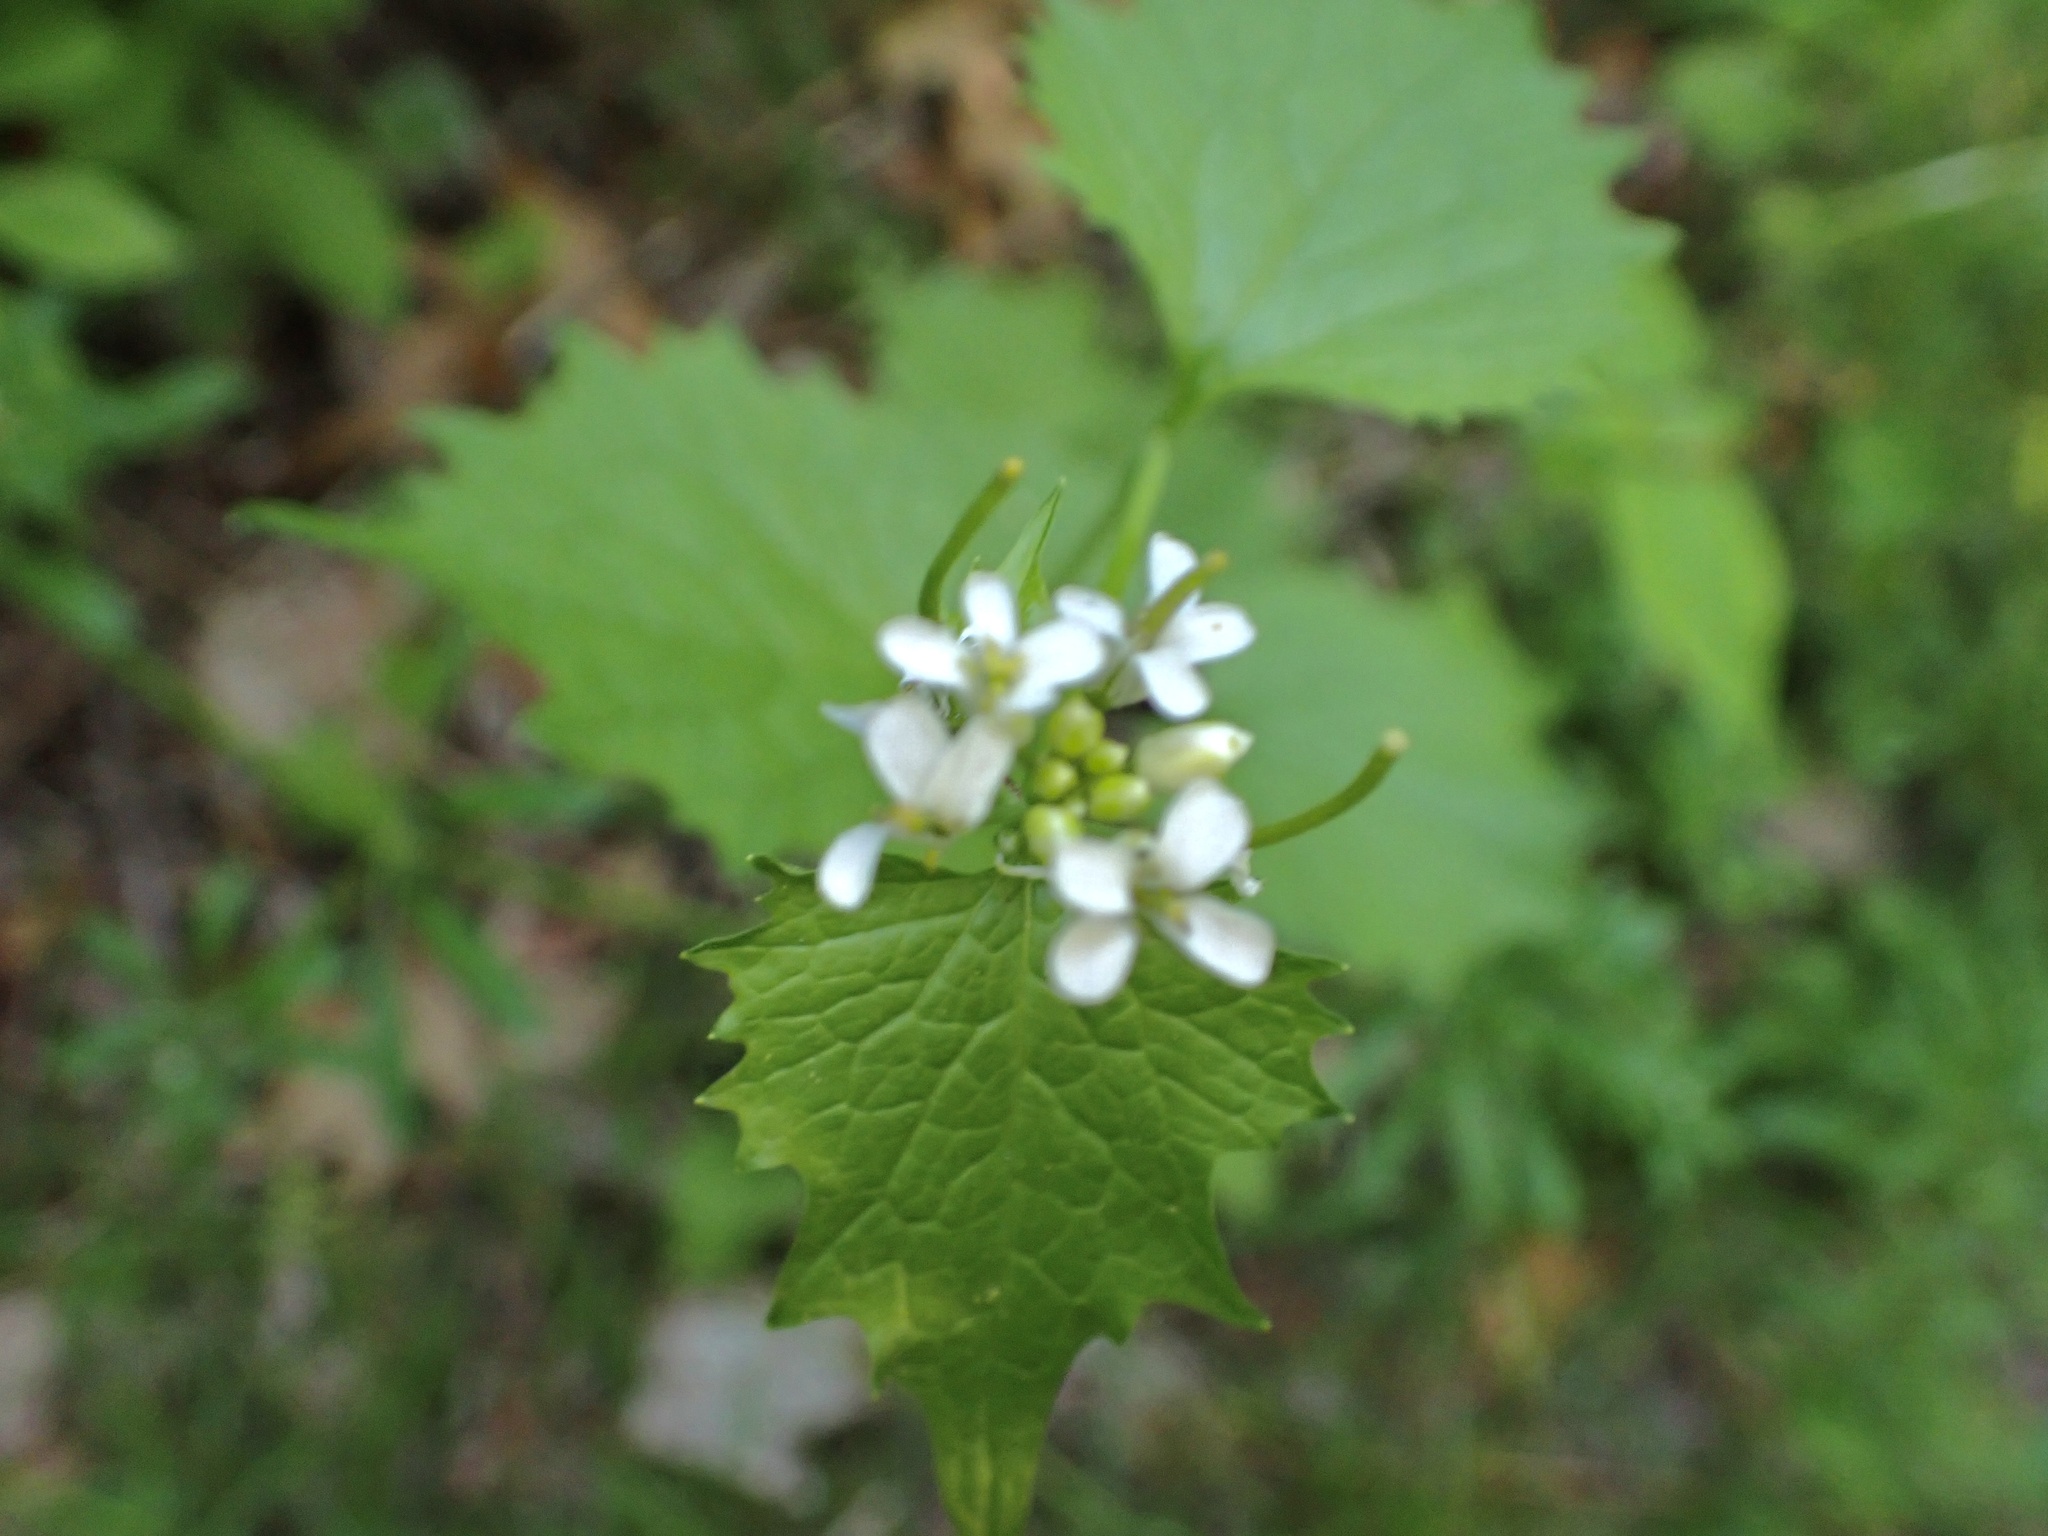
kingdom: Plantae
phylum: Tracheophyta
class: Magnoliopsida
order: Brassicales
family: Brassicaceae
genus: Alliaria
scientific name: Alliaria petiolata
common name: Garlic mustard
